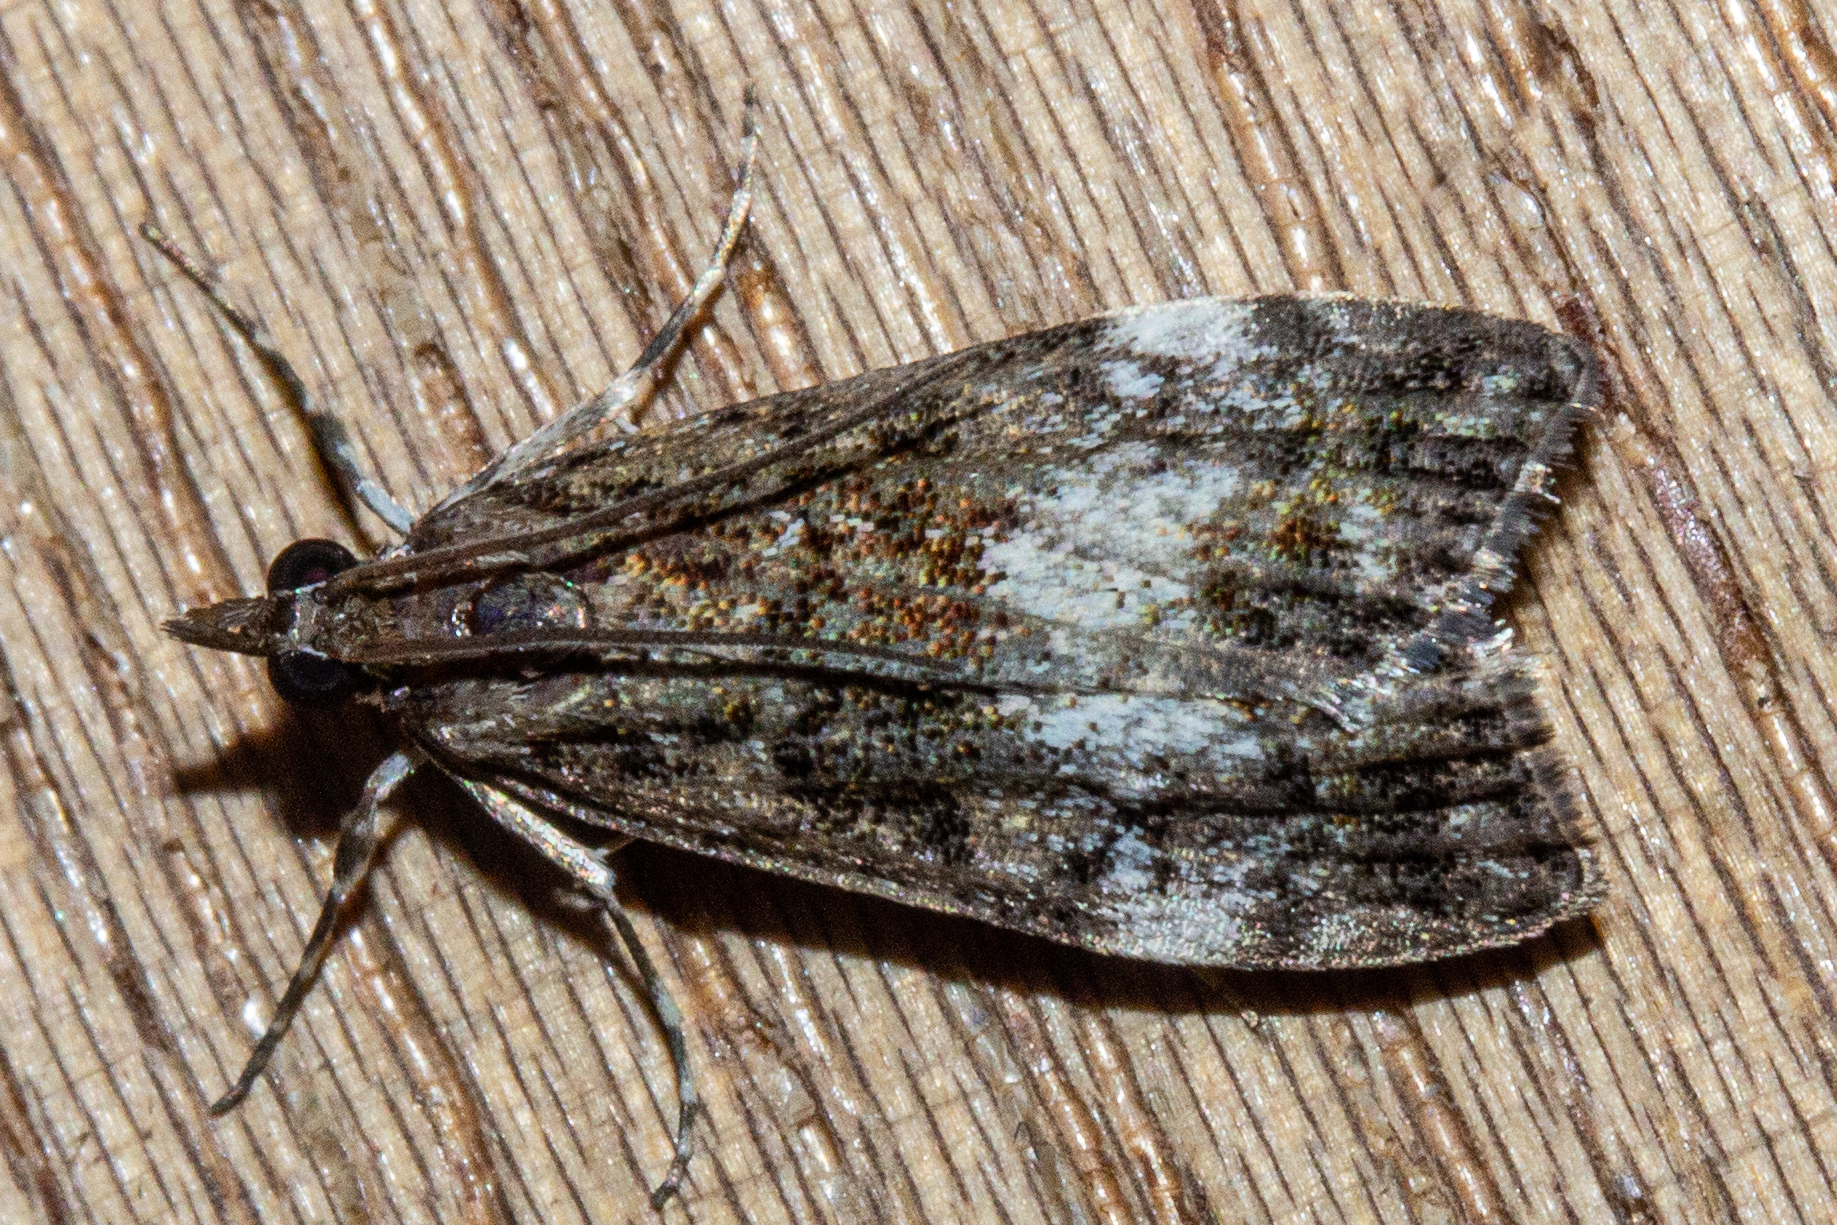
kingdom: Animalia
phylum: Arthropoda
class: Insecta
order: Lepidoptera
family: Crambidae
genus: Eudonia
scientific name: Eudonia dinodes
